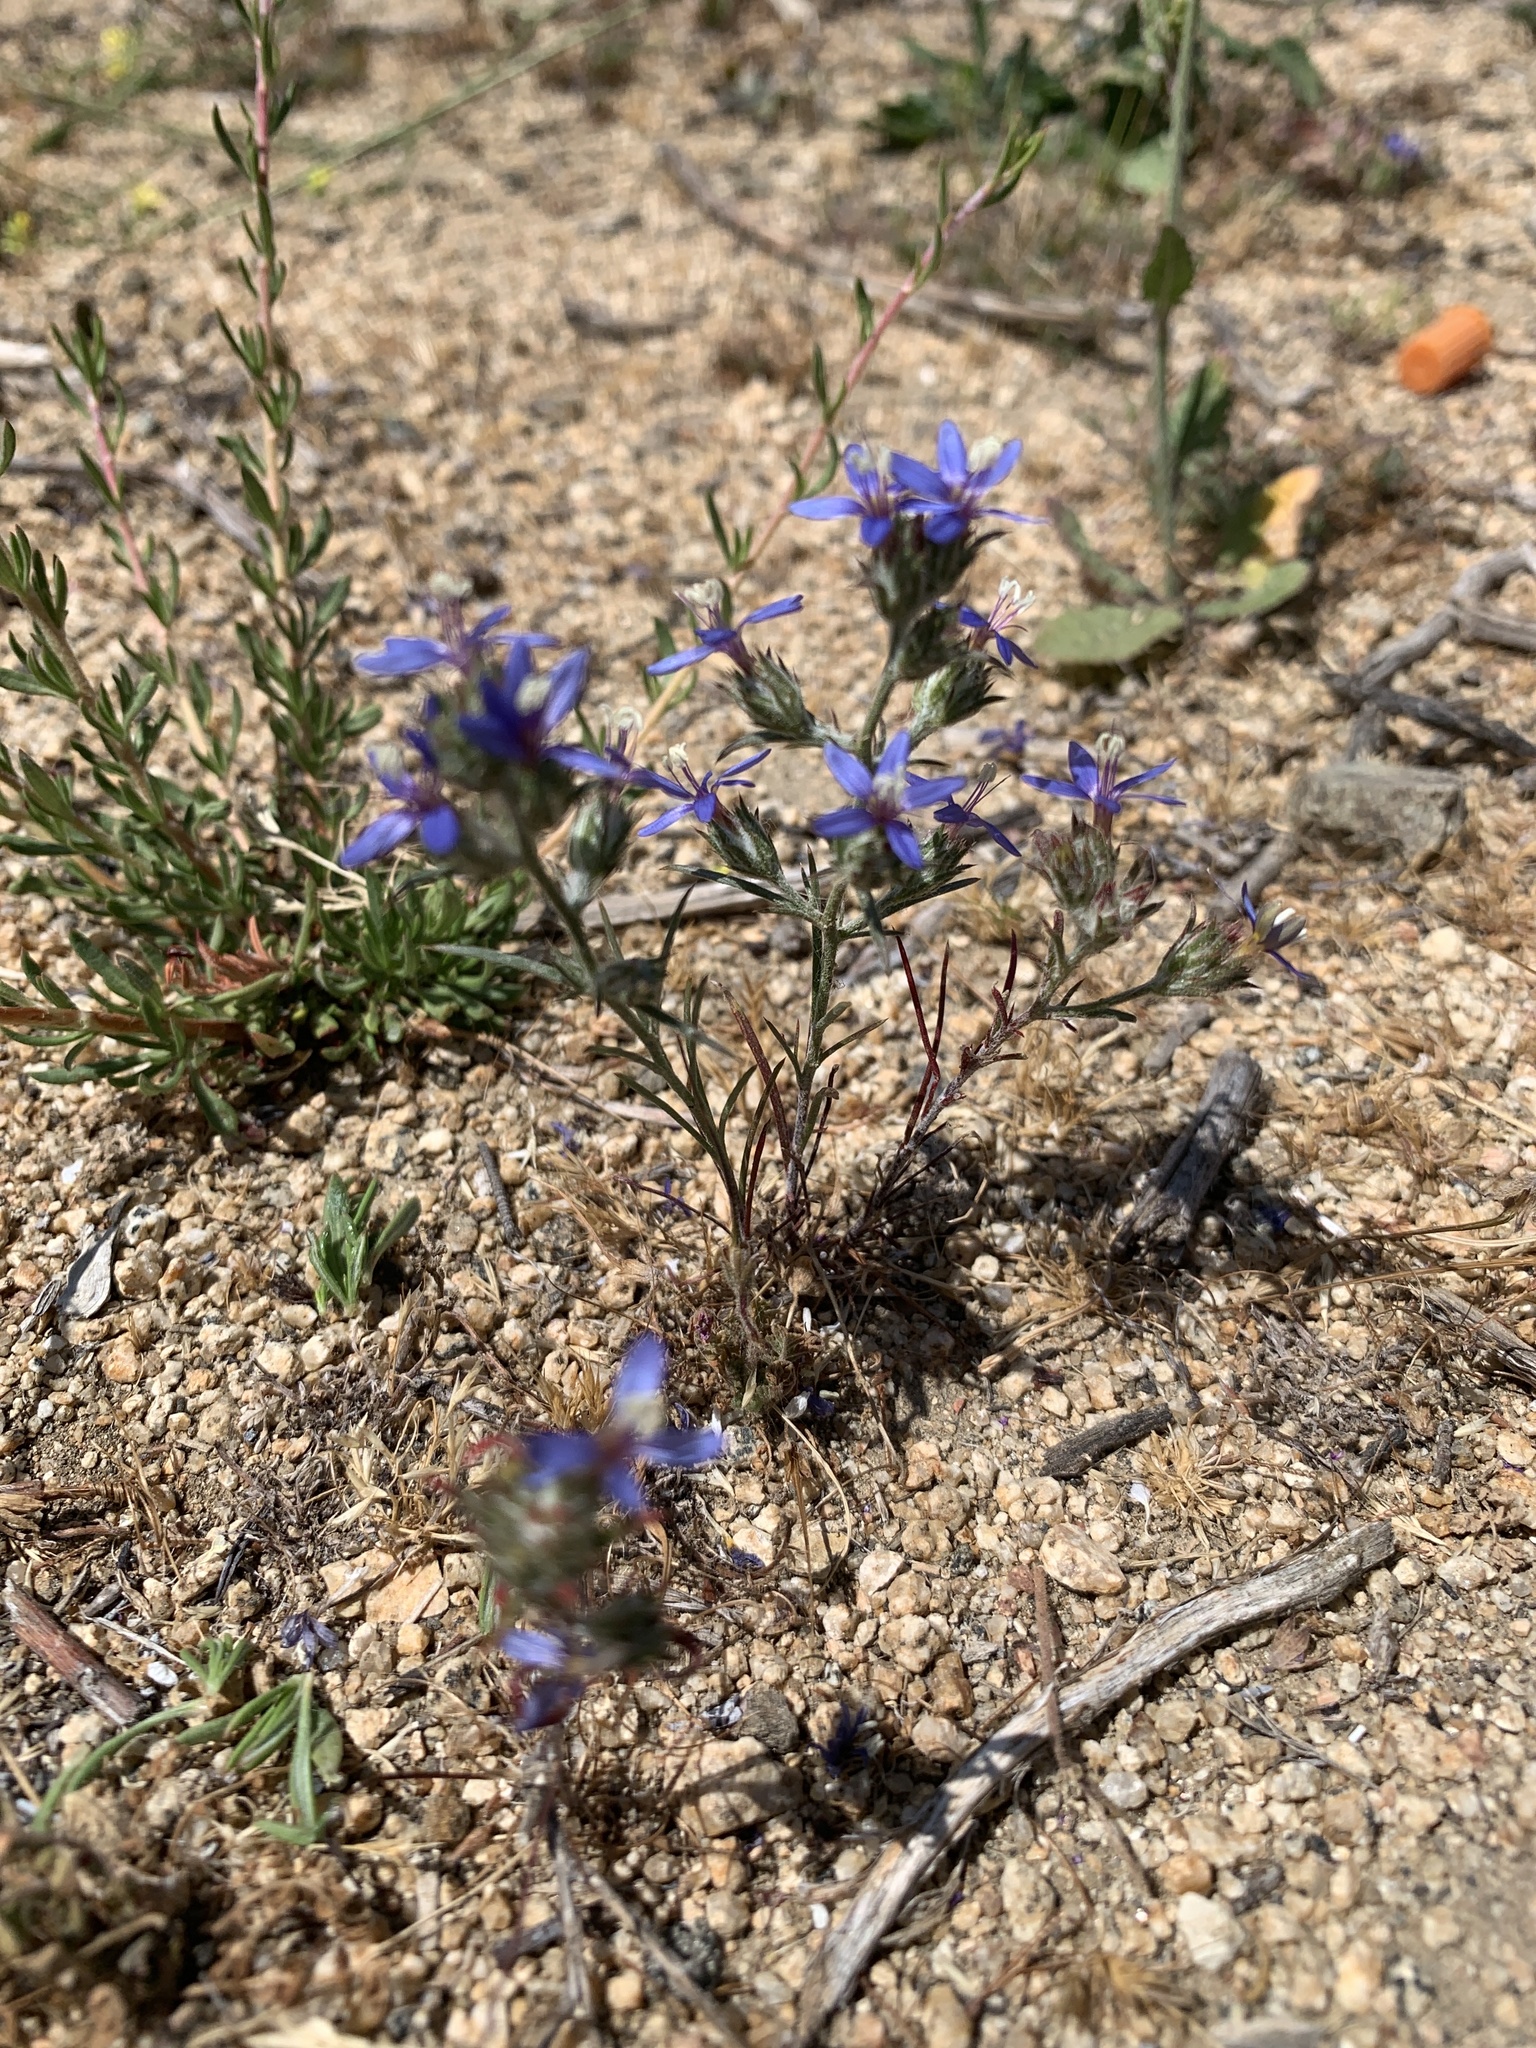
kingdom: Plantae
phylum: Tracheophyta
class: Magnoliopsida
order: Ericales
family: Polemoniaceae
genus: Eriastrum
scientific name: Eriastrum sapphirinum
